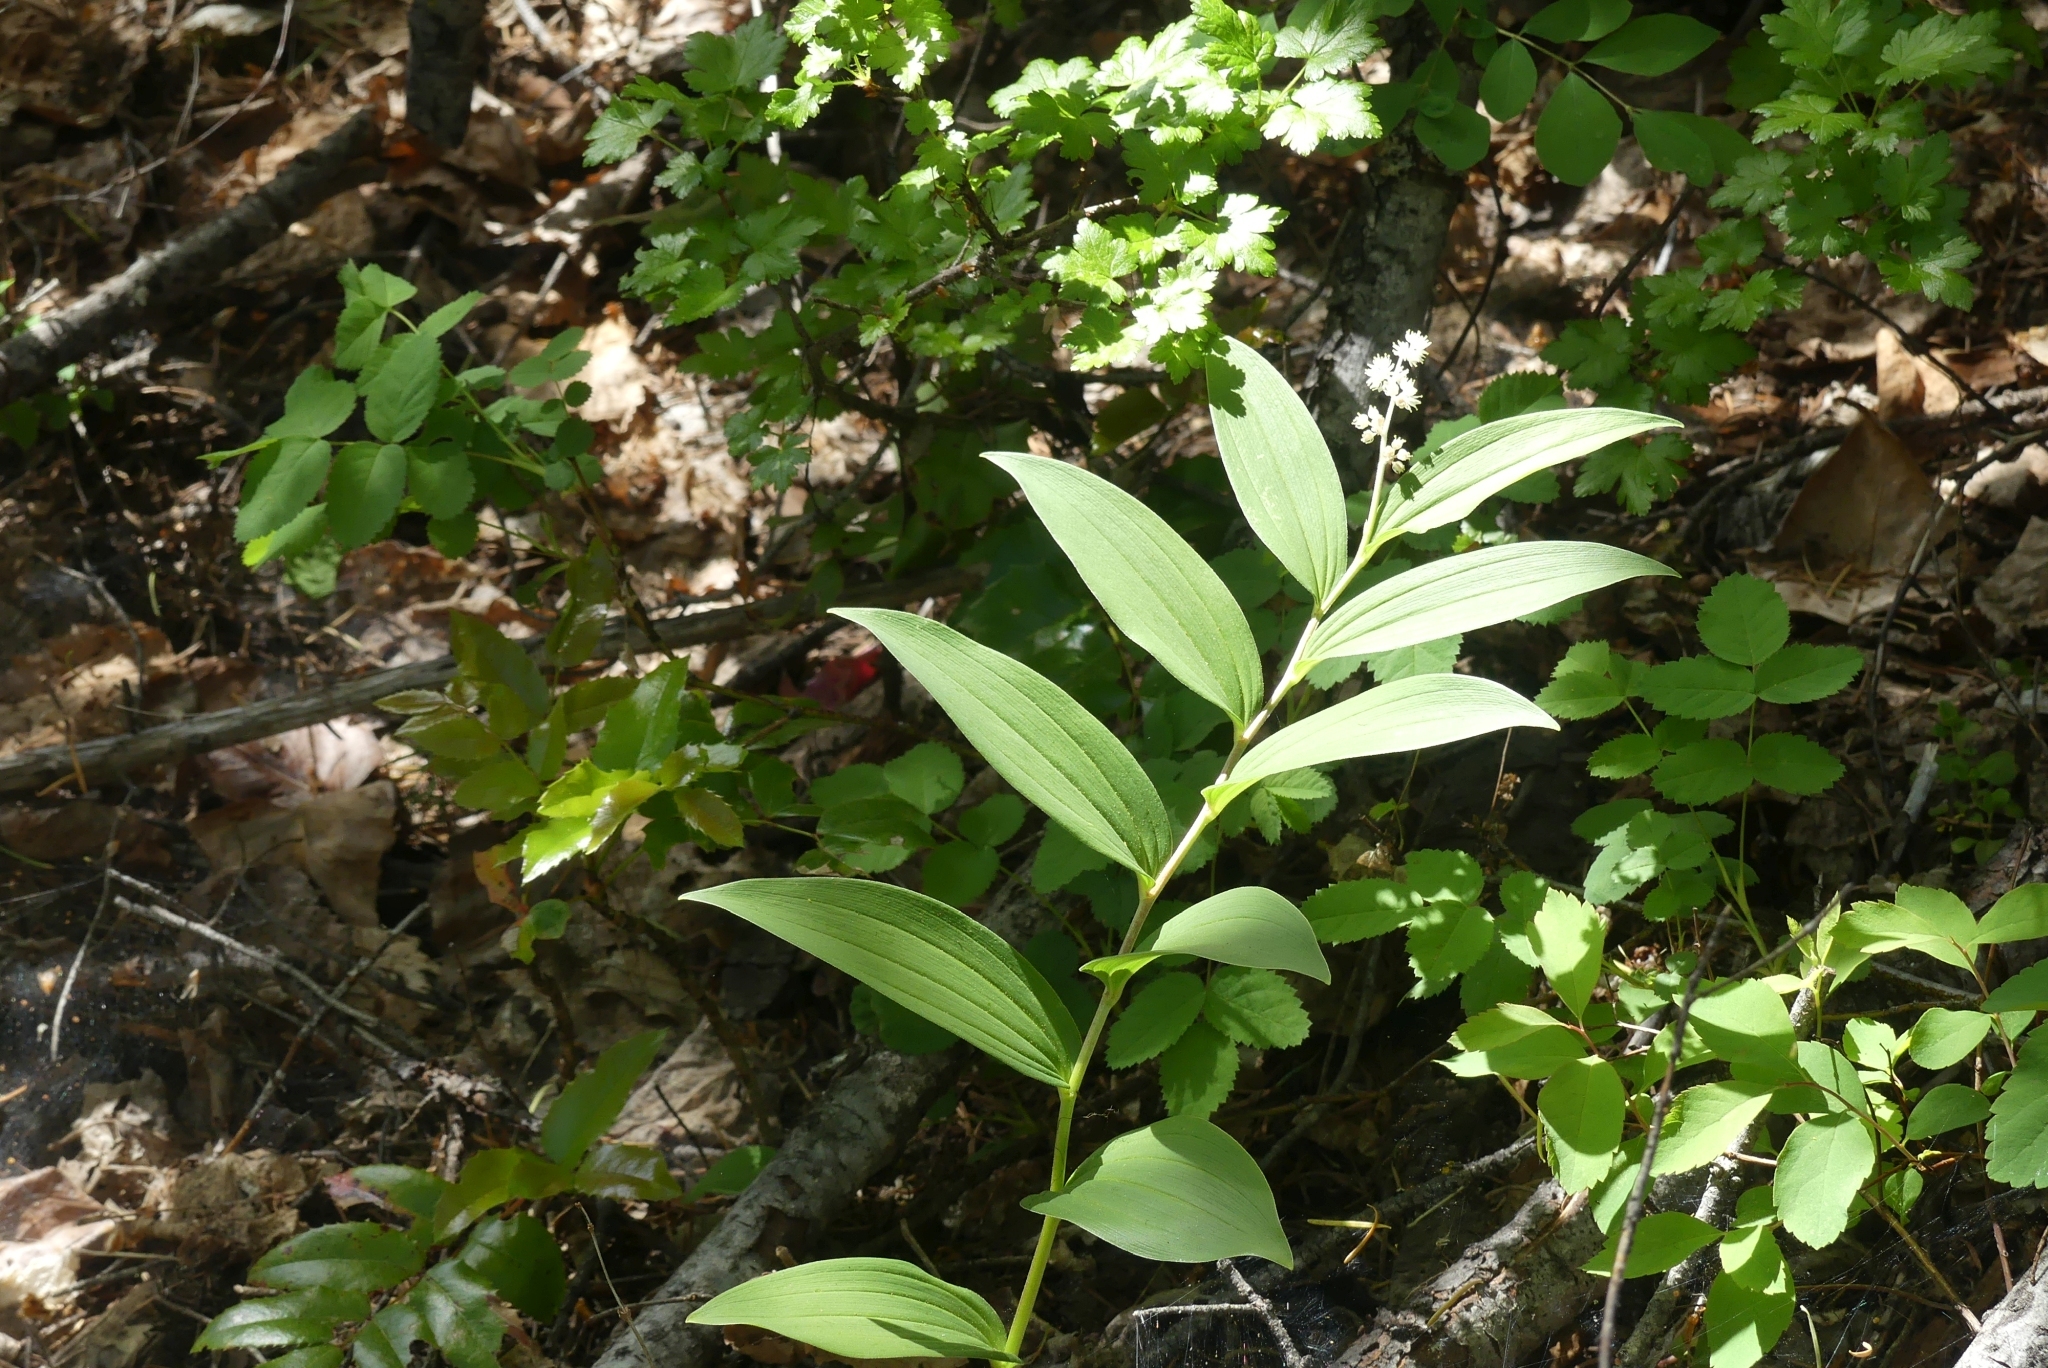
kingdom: Plantae
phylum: Tracheophyta
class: Liliopsida
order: Asparagales
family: Asparagaceae
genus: Maianthemum
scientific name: Maianthemum racemosum
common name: False spikenard
